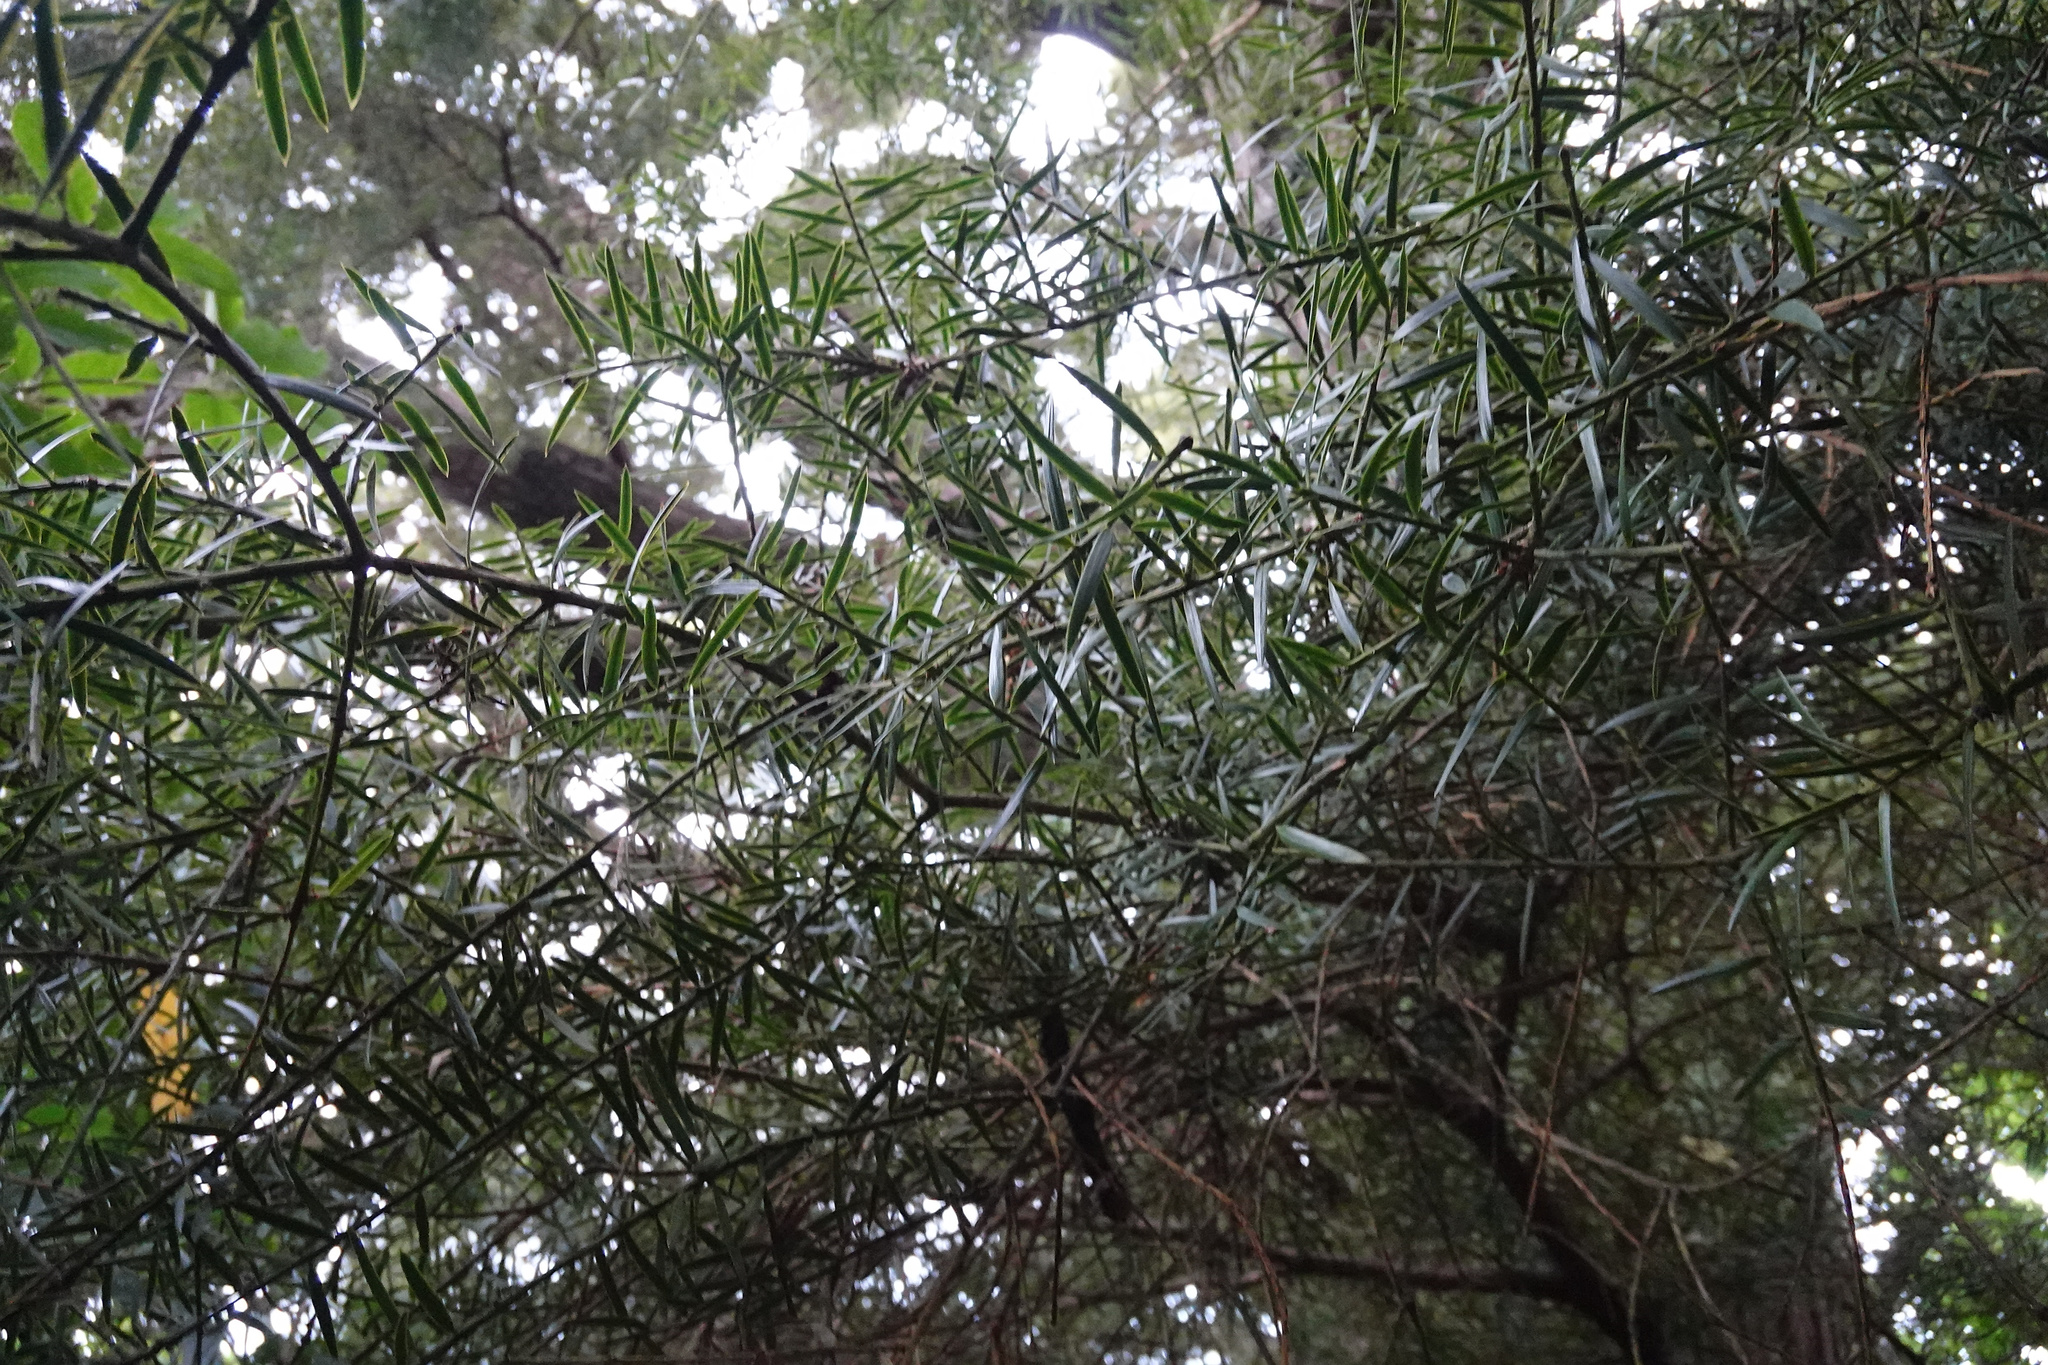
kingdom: Plantae
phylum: Tracheophyta
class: Pinopsida
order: Pinales
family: Podocarpaceae
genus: Podocarpus
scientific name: Podocarpus totara
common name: Totara
